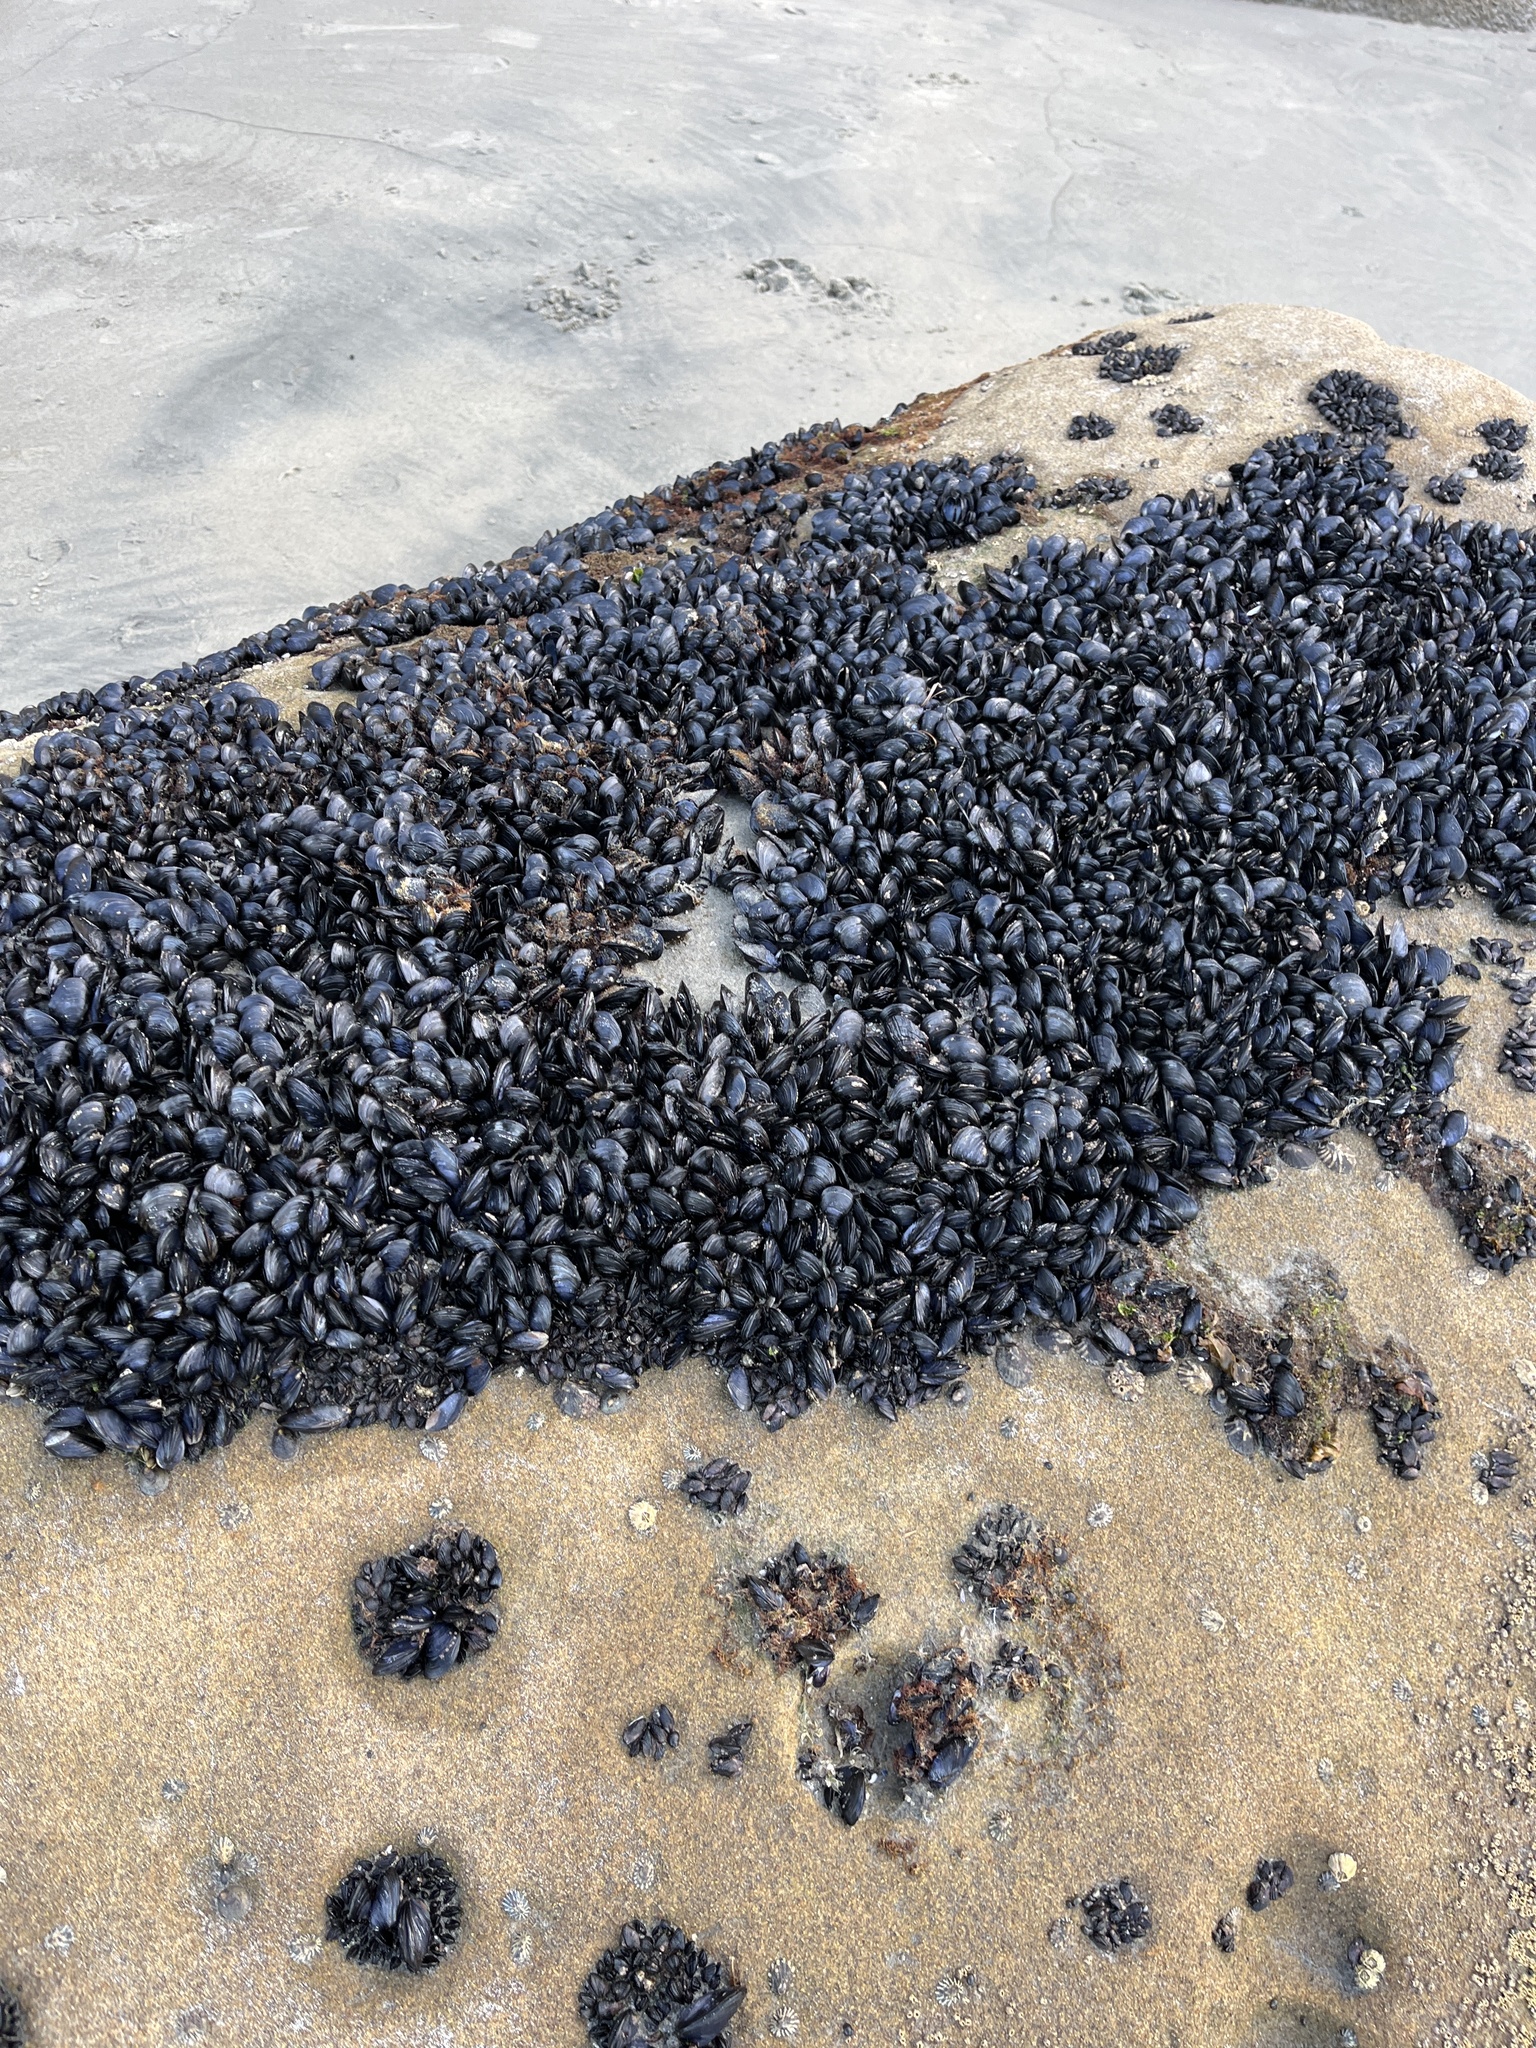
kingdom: Animalia
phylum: Mollusca
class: Bivalvia
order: Mytilida
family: Mytilidae
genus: Mytilus
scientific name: Mytilus galloprovincialis
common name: Mediterranean mussel
